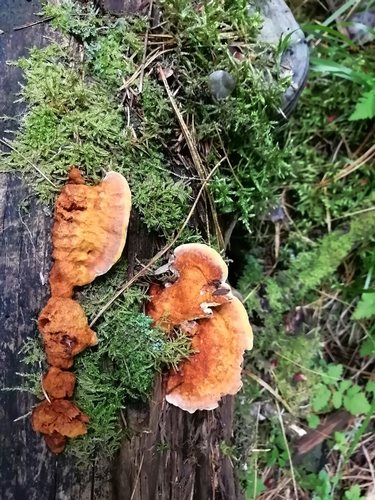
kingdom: Fungi
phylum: Basidiomycota
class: Agaricomycetes
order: Polyporales
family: Pycnoporellaceae
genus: Pycnoporellus
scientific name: Pycnoporellus fulgens
